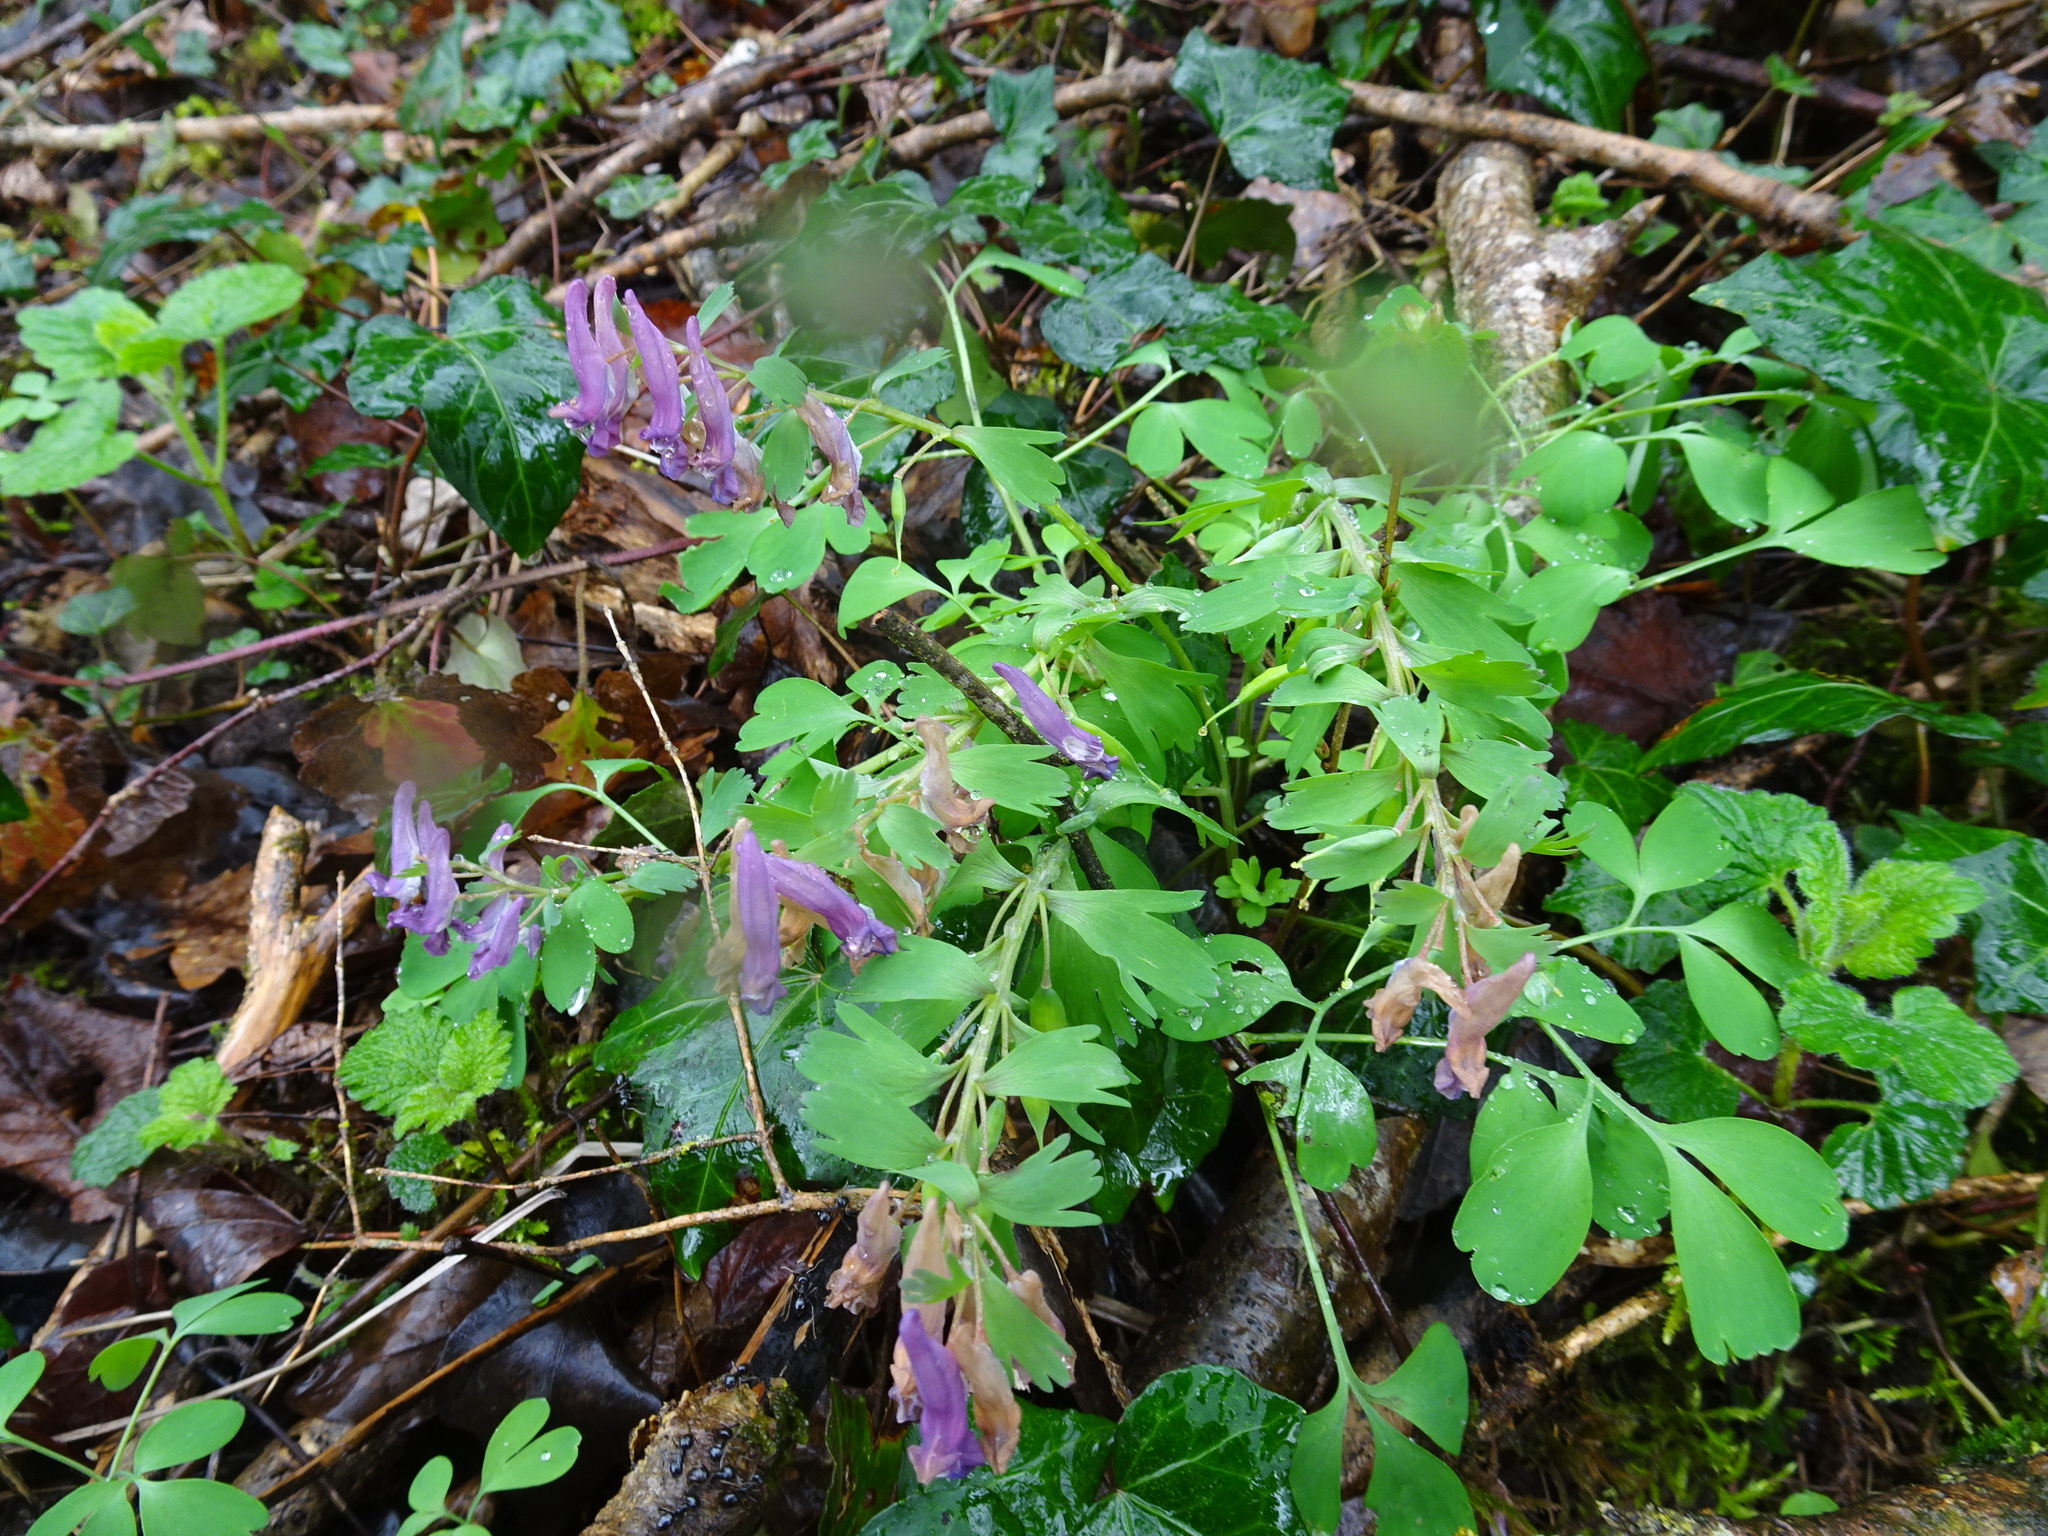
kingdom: Plantae
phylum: Tracheophyta
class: Magnoliopsida
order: Ranunculales
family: Papaveraceae
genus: Corydalis
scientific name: Corydalis solida
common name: Bird-in-a-bush
